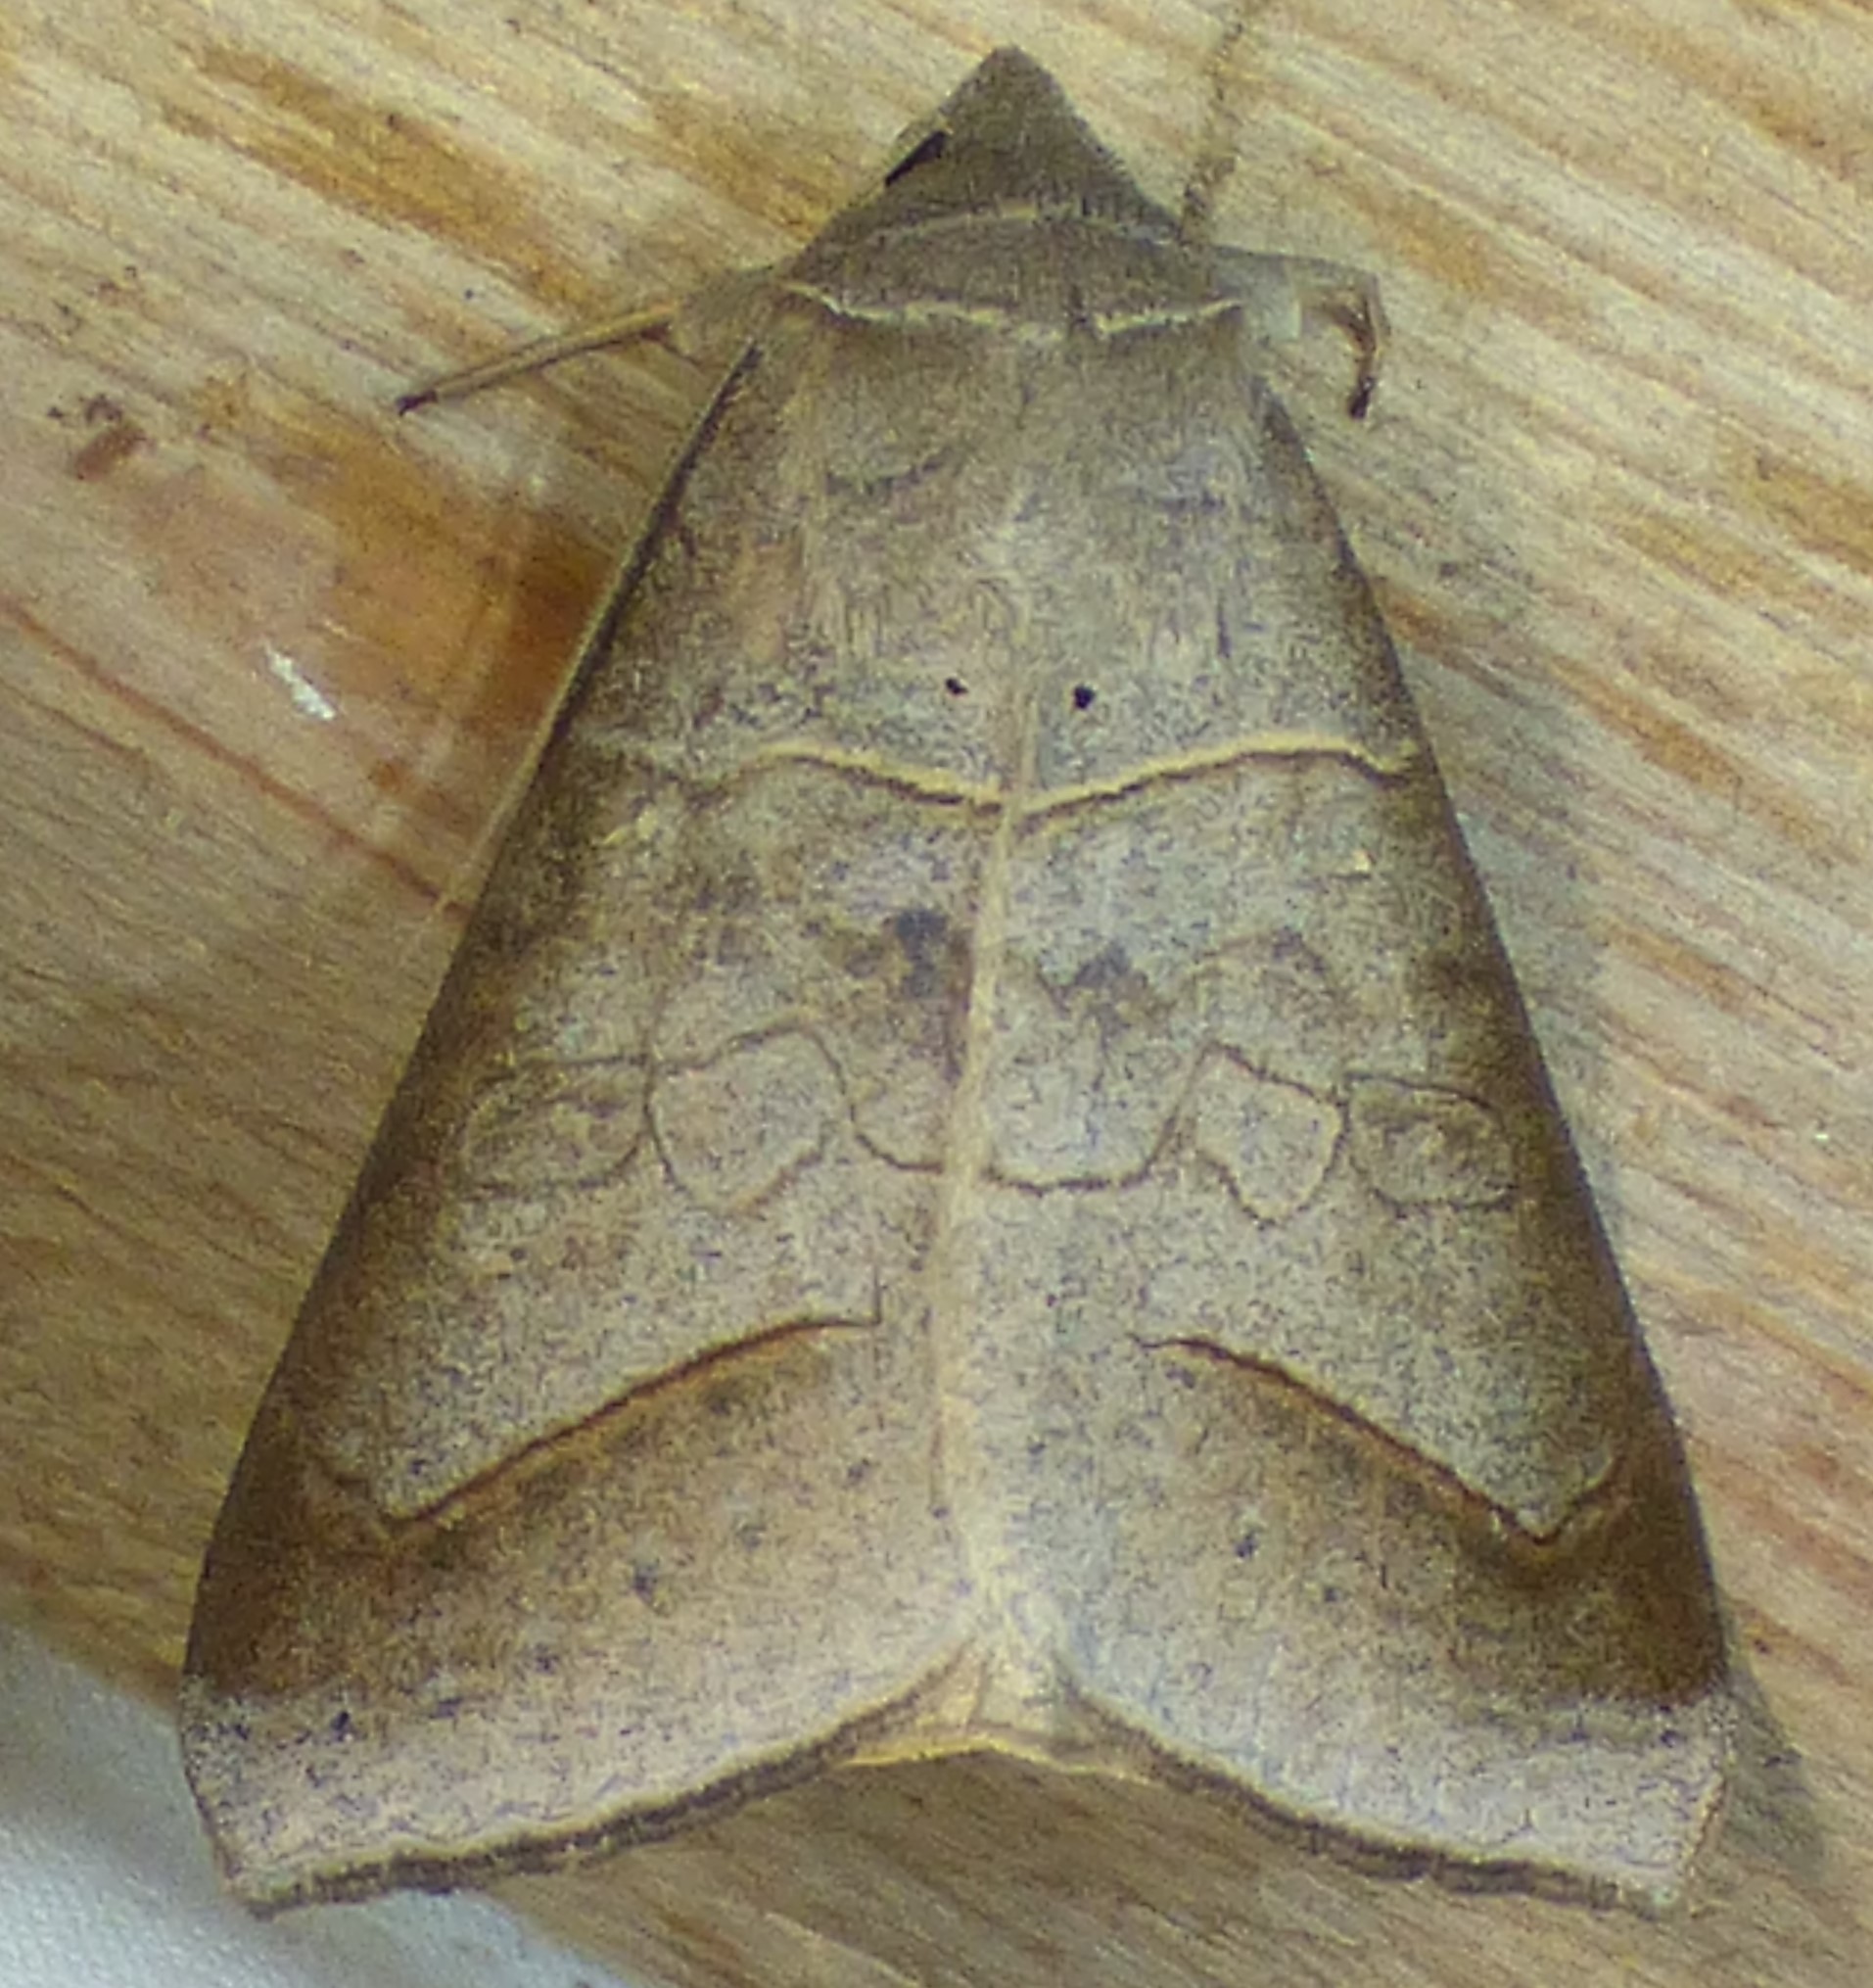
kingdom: Animalia
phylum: Arthropoda
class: Insecta
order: Lepidoptera
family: Erebidae
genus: Mocis
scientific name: Mocis marcida
